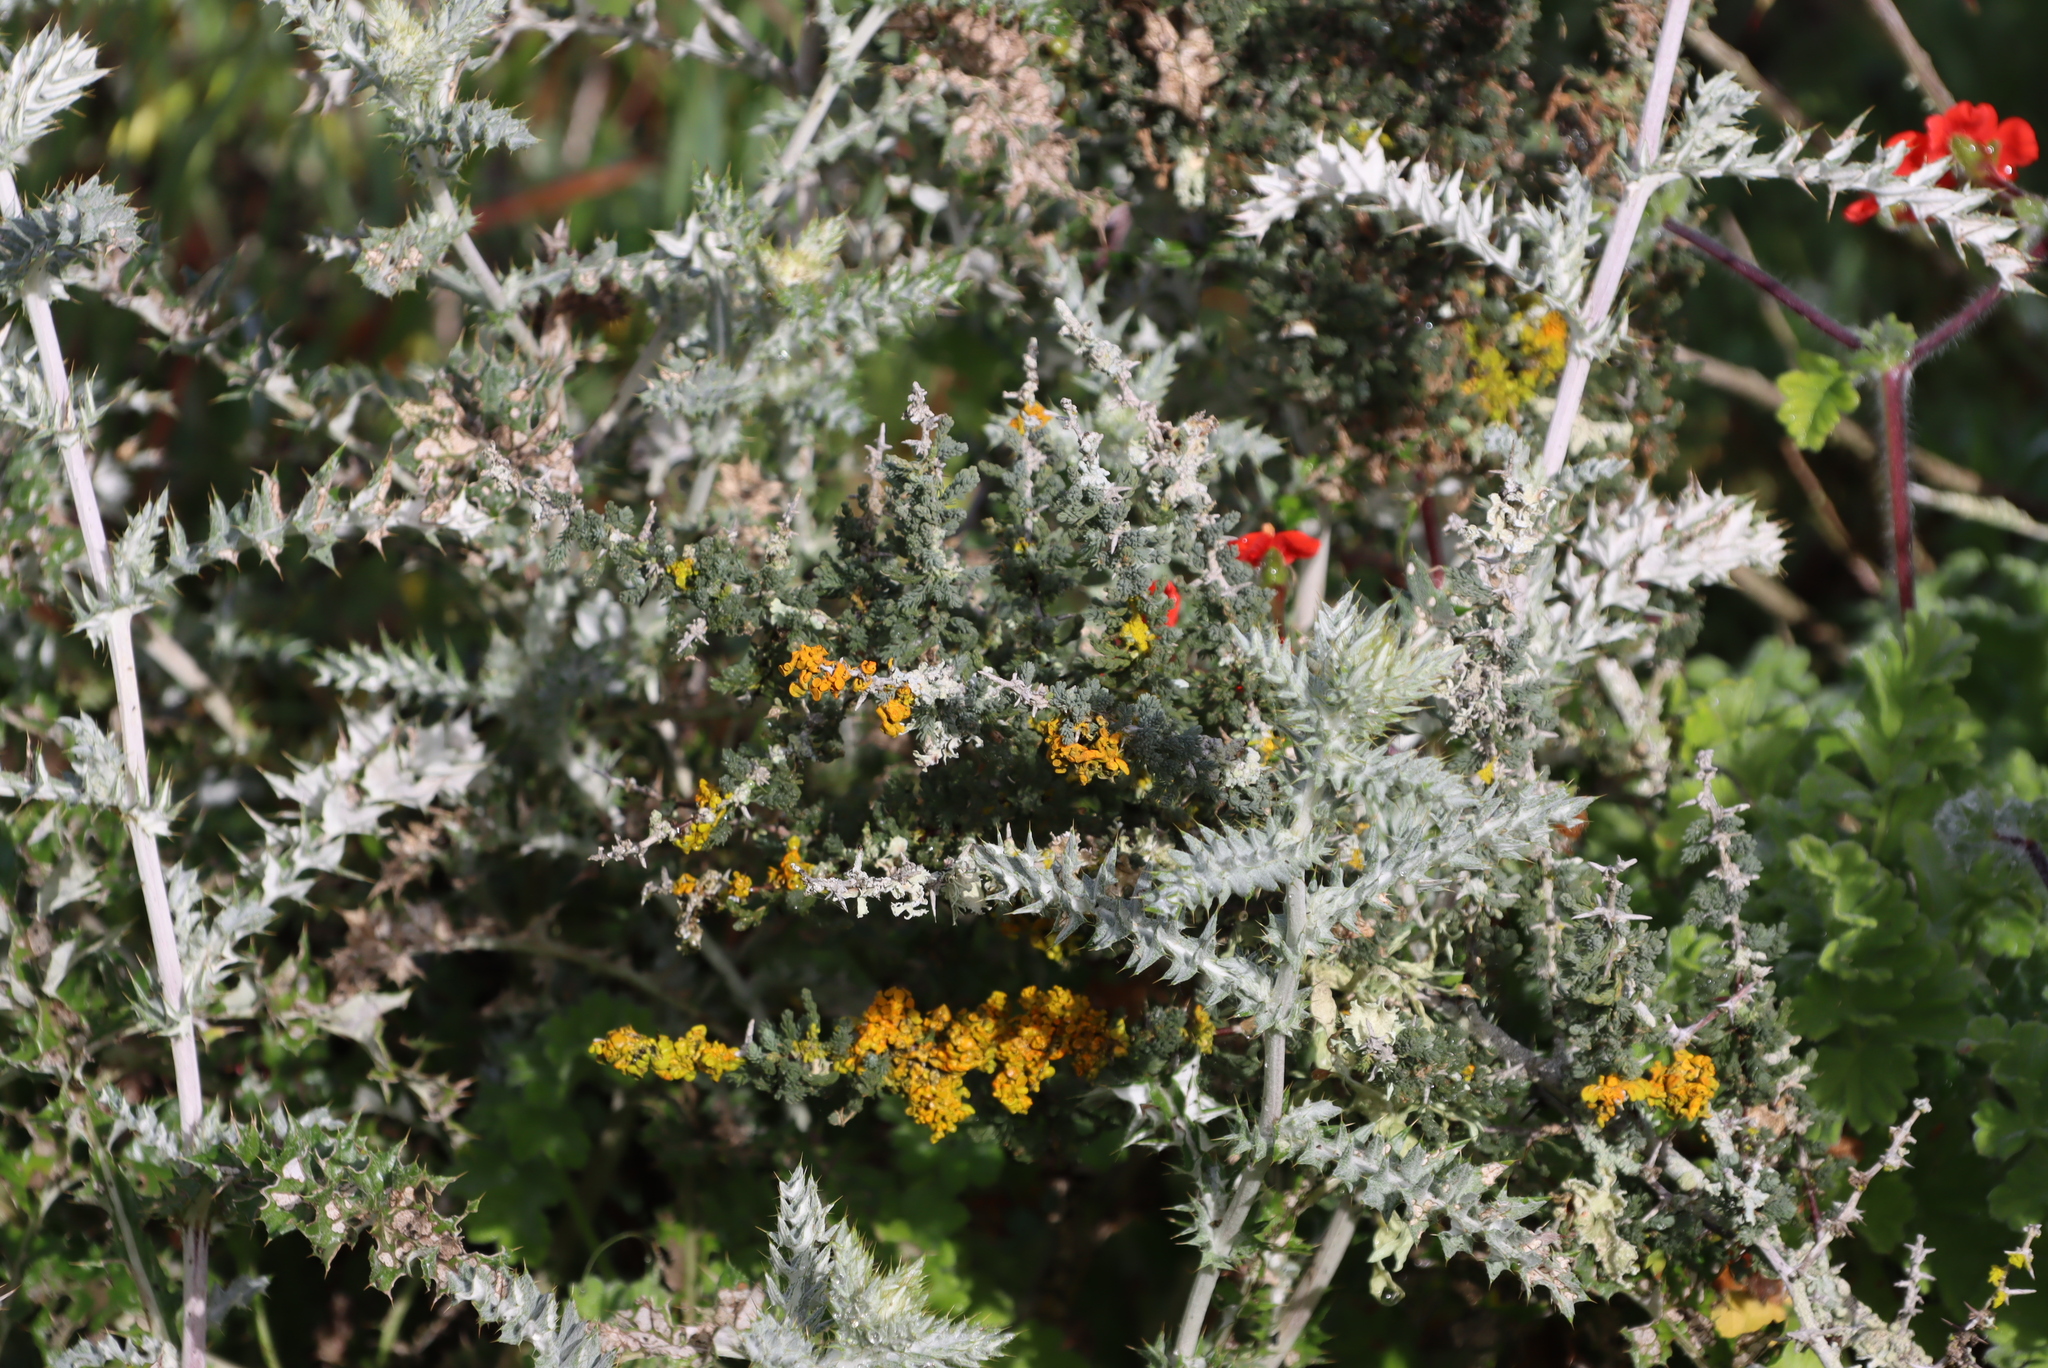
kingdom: Plantae
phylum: Tracheophyta
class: Magnoliopsida
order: Asterales
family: Asteraceae
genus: Berkheya
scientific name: Berkheya rigida
